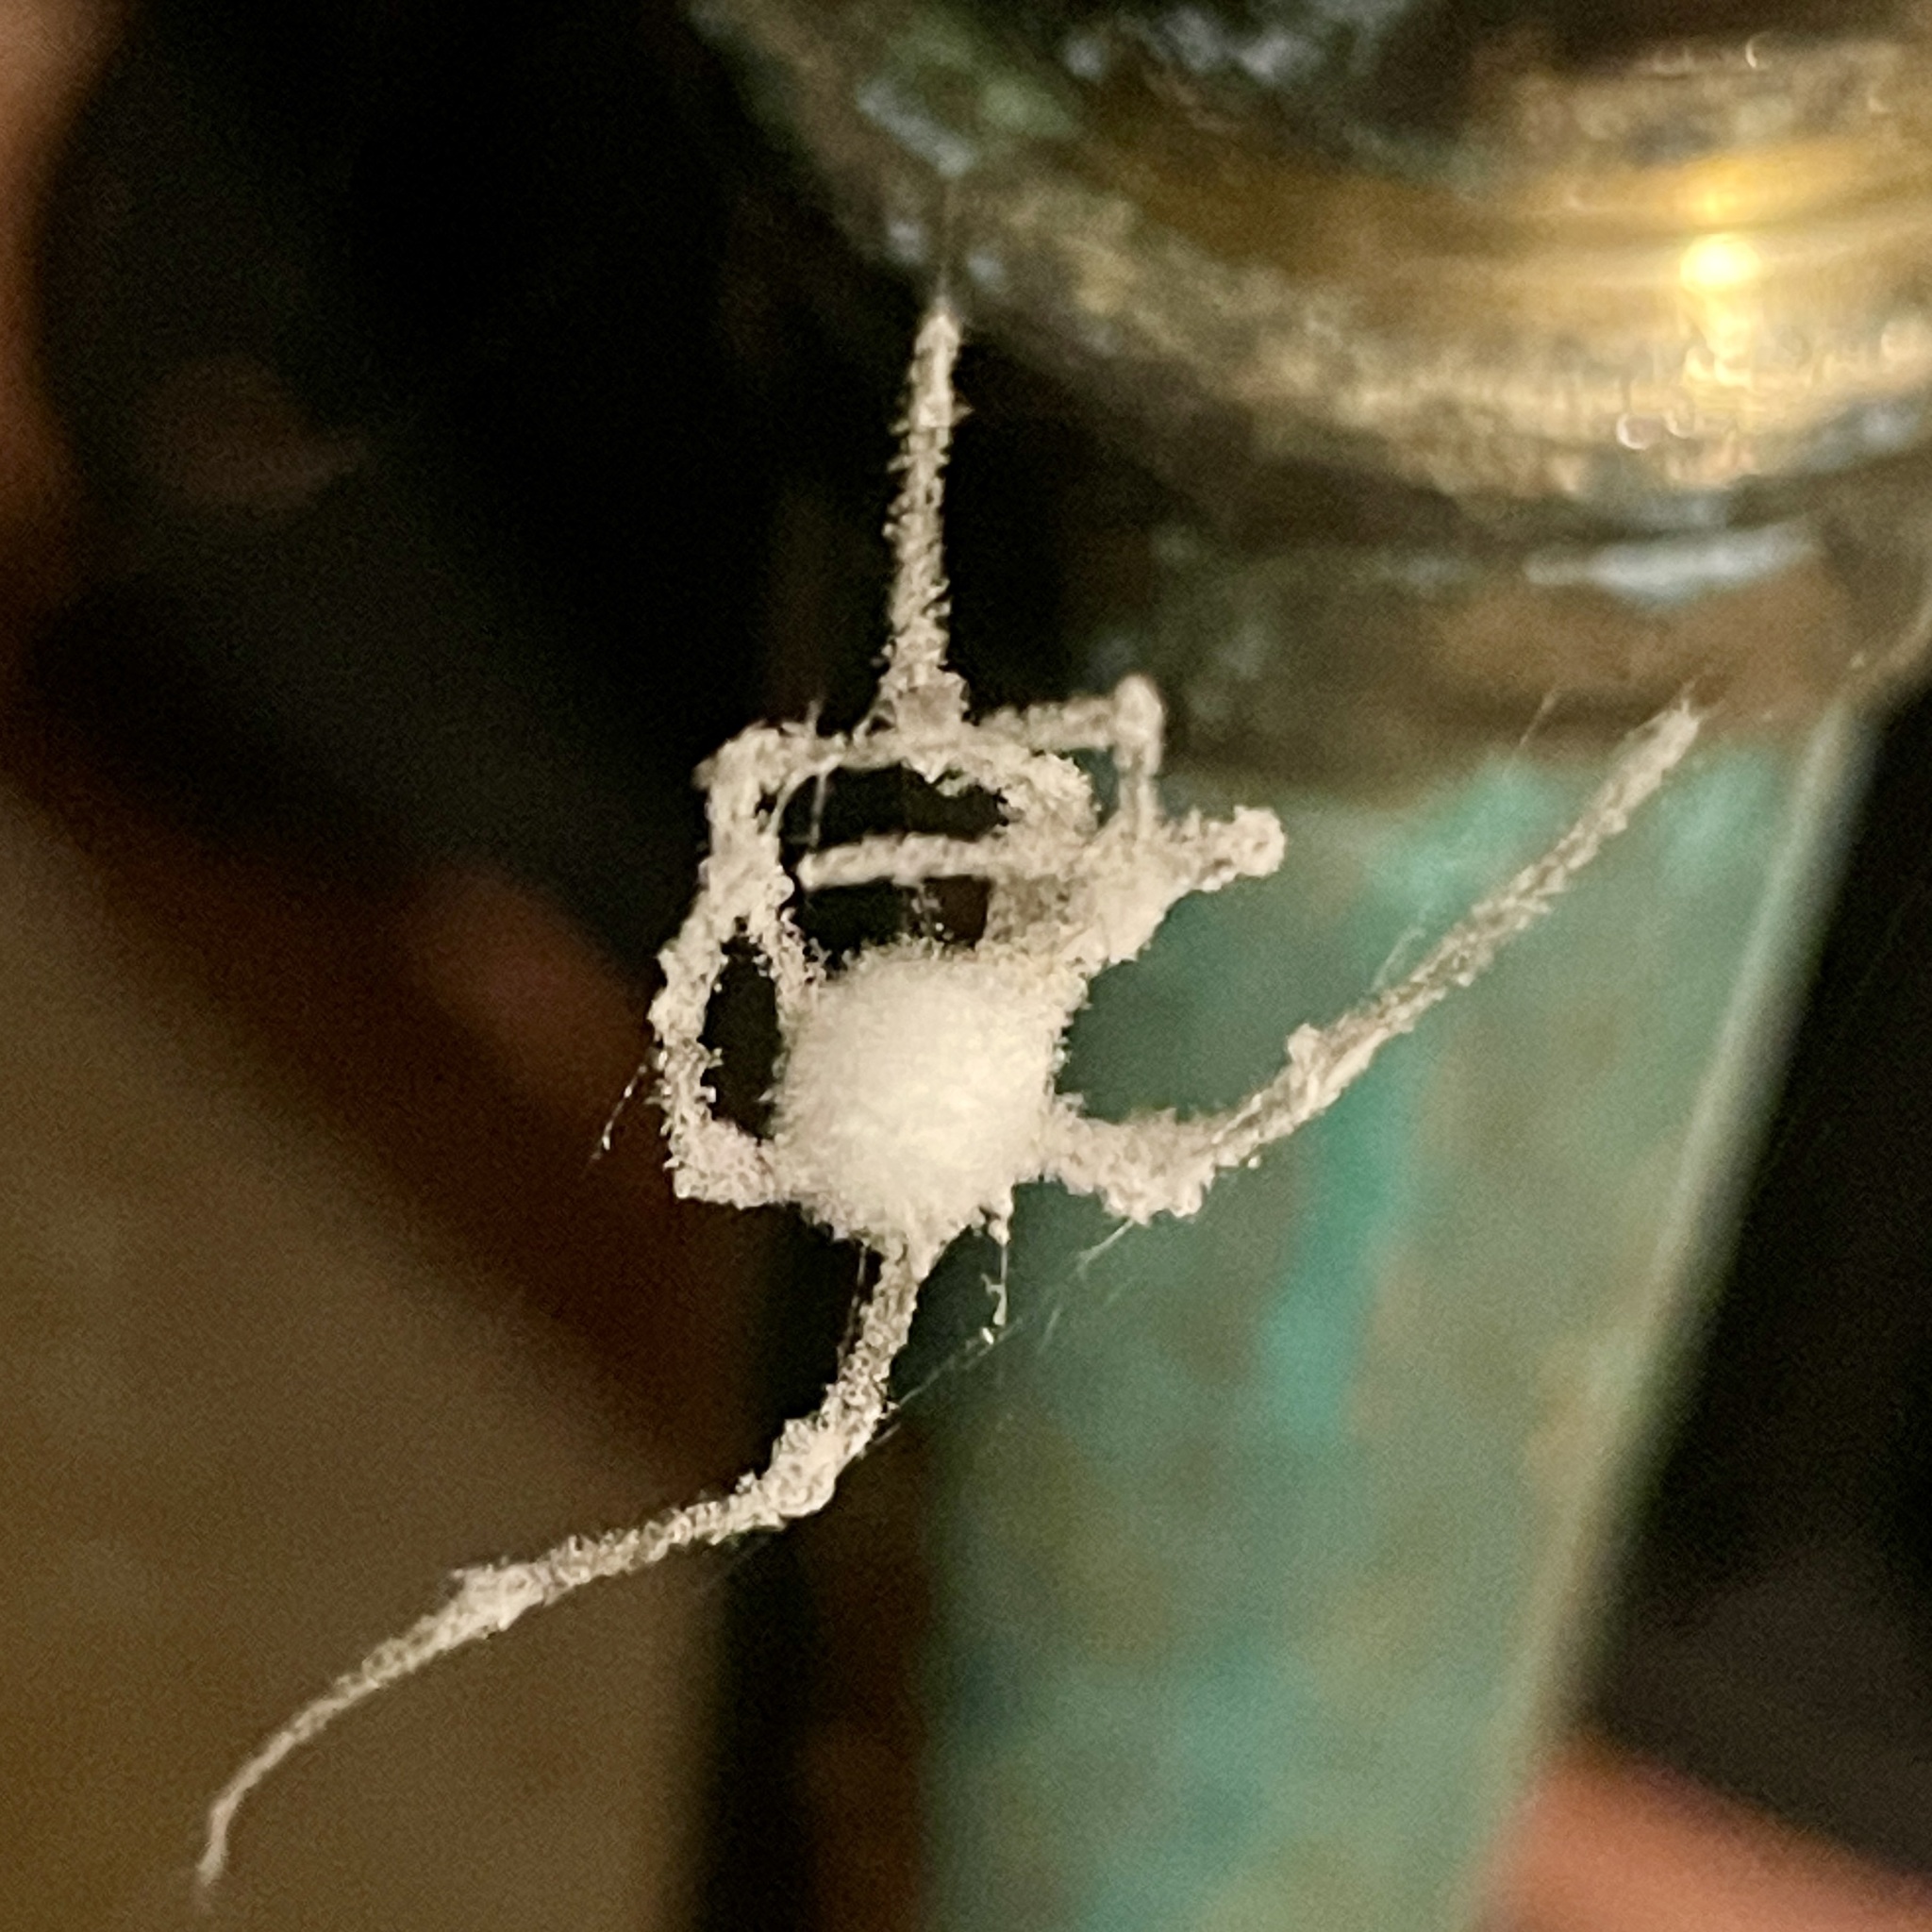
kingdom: Fungi
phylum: Ascomycota
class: Sordariomycetes
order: Hypocreales
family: Cordycipitaceae
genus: Lecanicillium
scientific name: Lecanicillium tenuipes
